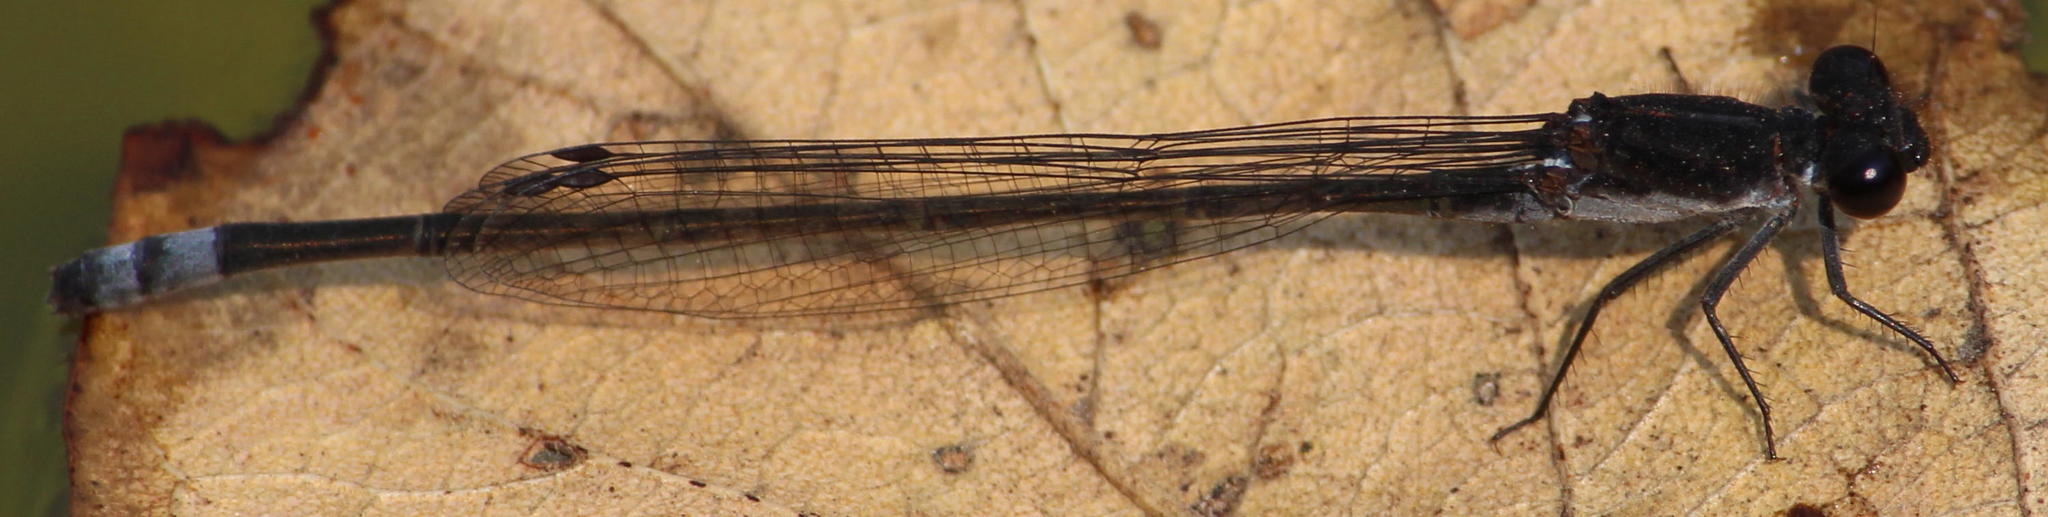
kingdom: Animalia
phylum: Arthropoda
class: Insecta
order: Odonata
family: Coenagrionidae
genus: Pseudagrion
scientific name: Pseudagrion commoniae
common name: Black sprite
